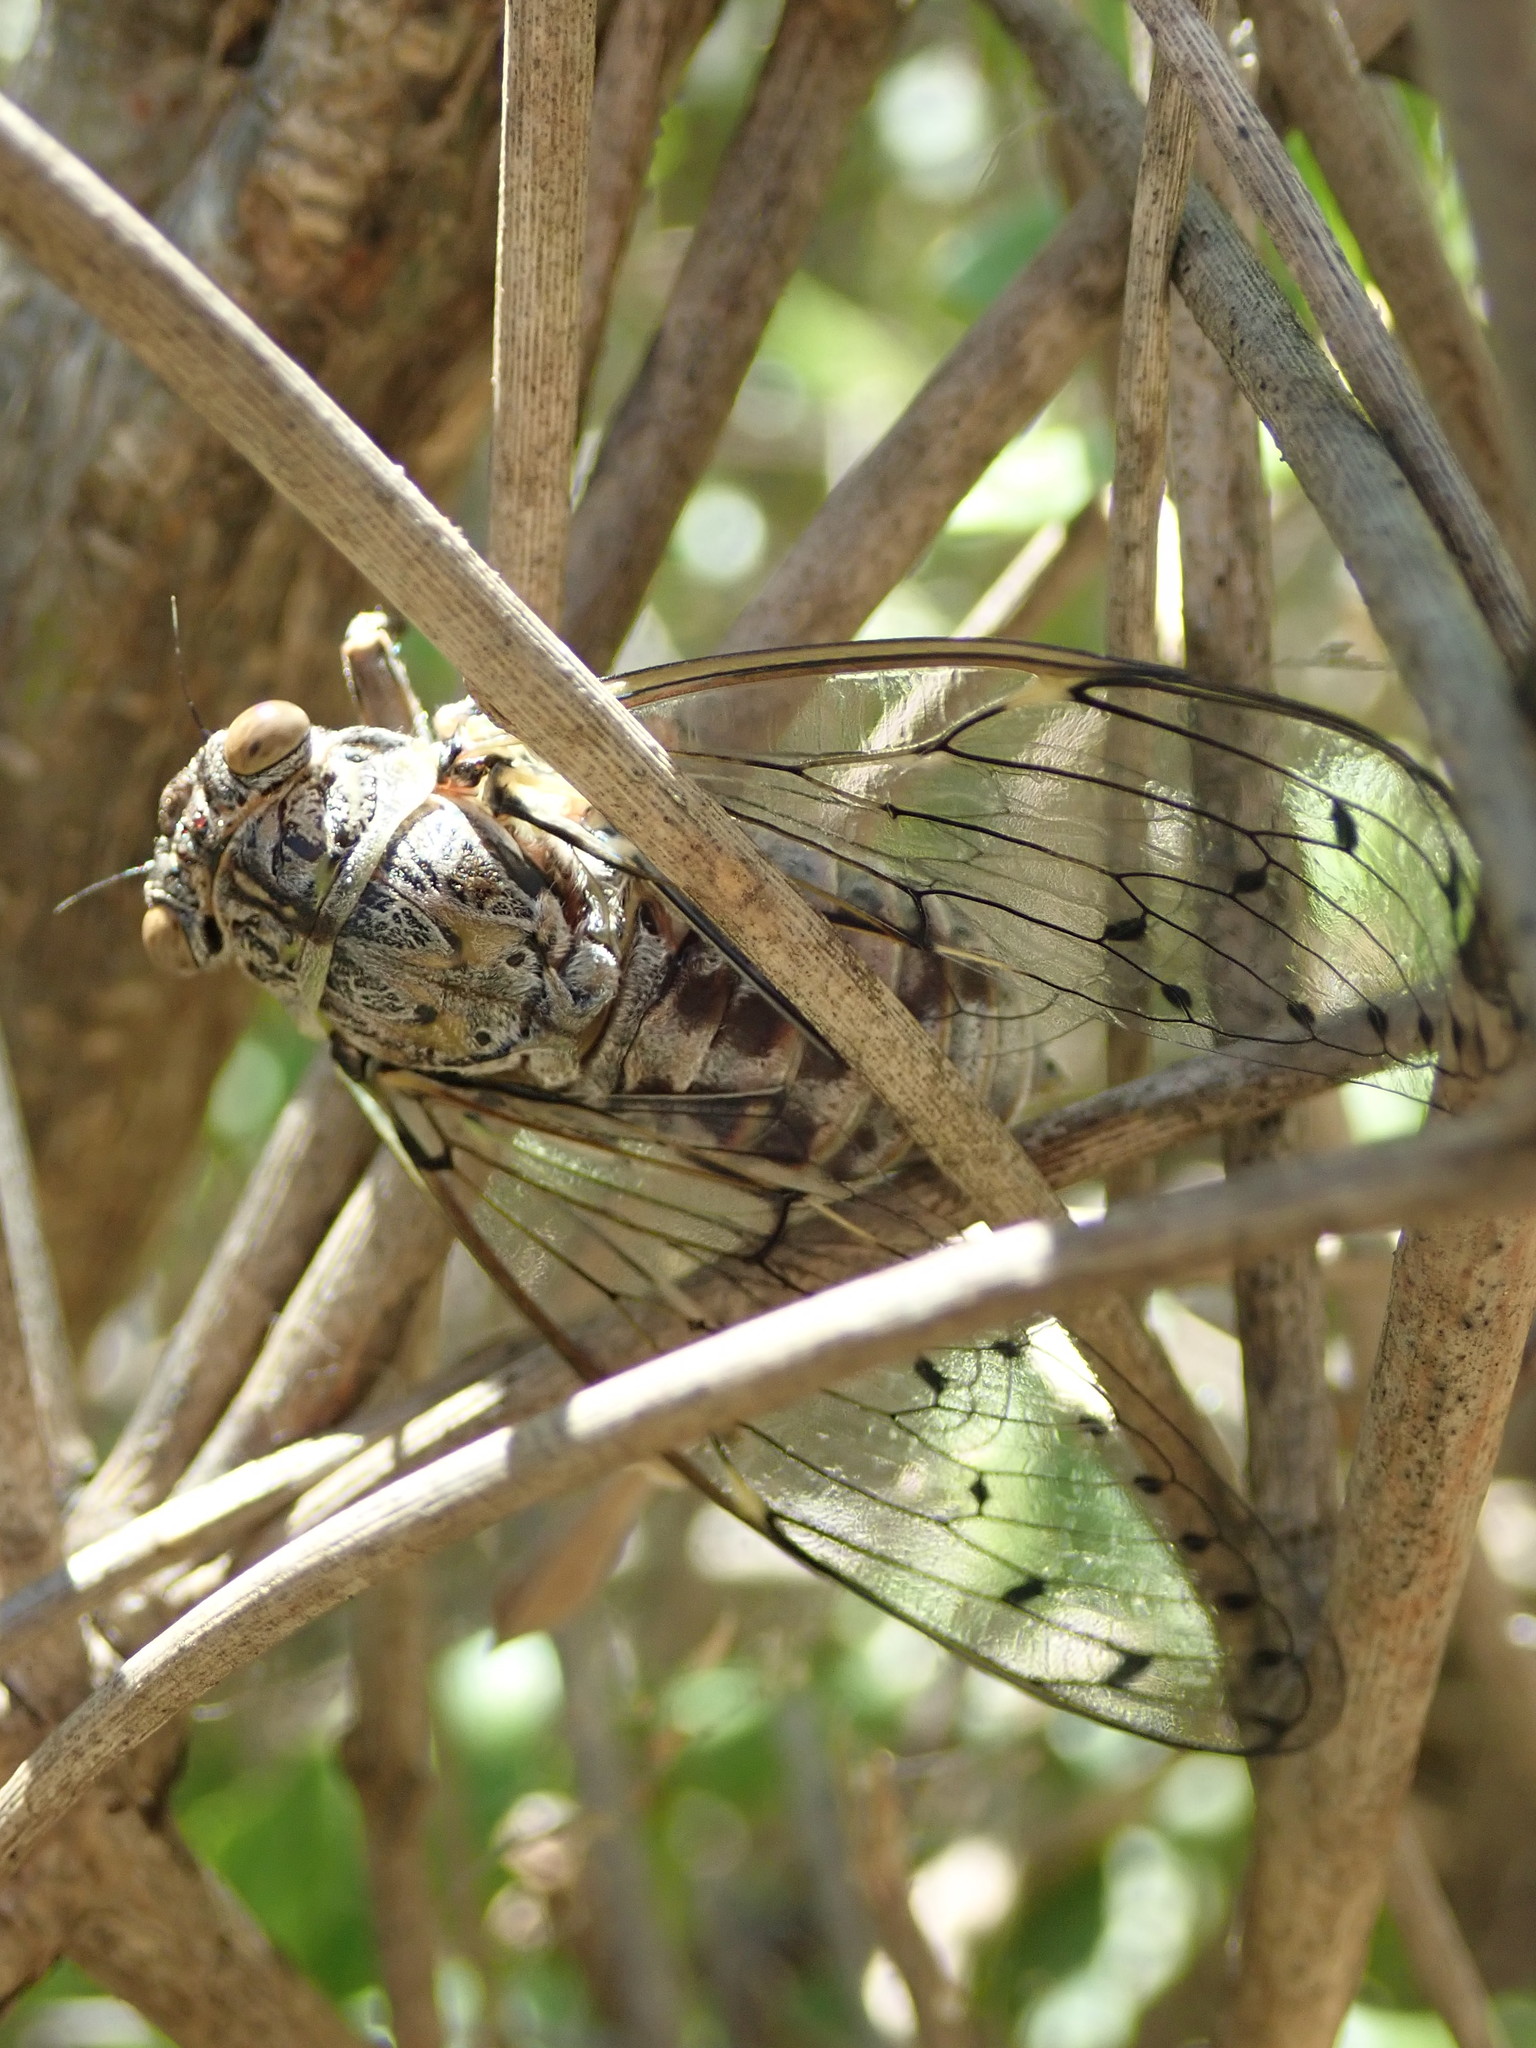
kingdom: Animalia
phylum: Arthropoda
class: Insecta
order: Hemiptera
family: Cicadidae
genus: Cicada
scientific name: Cicada orni
